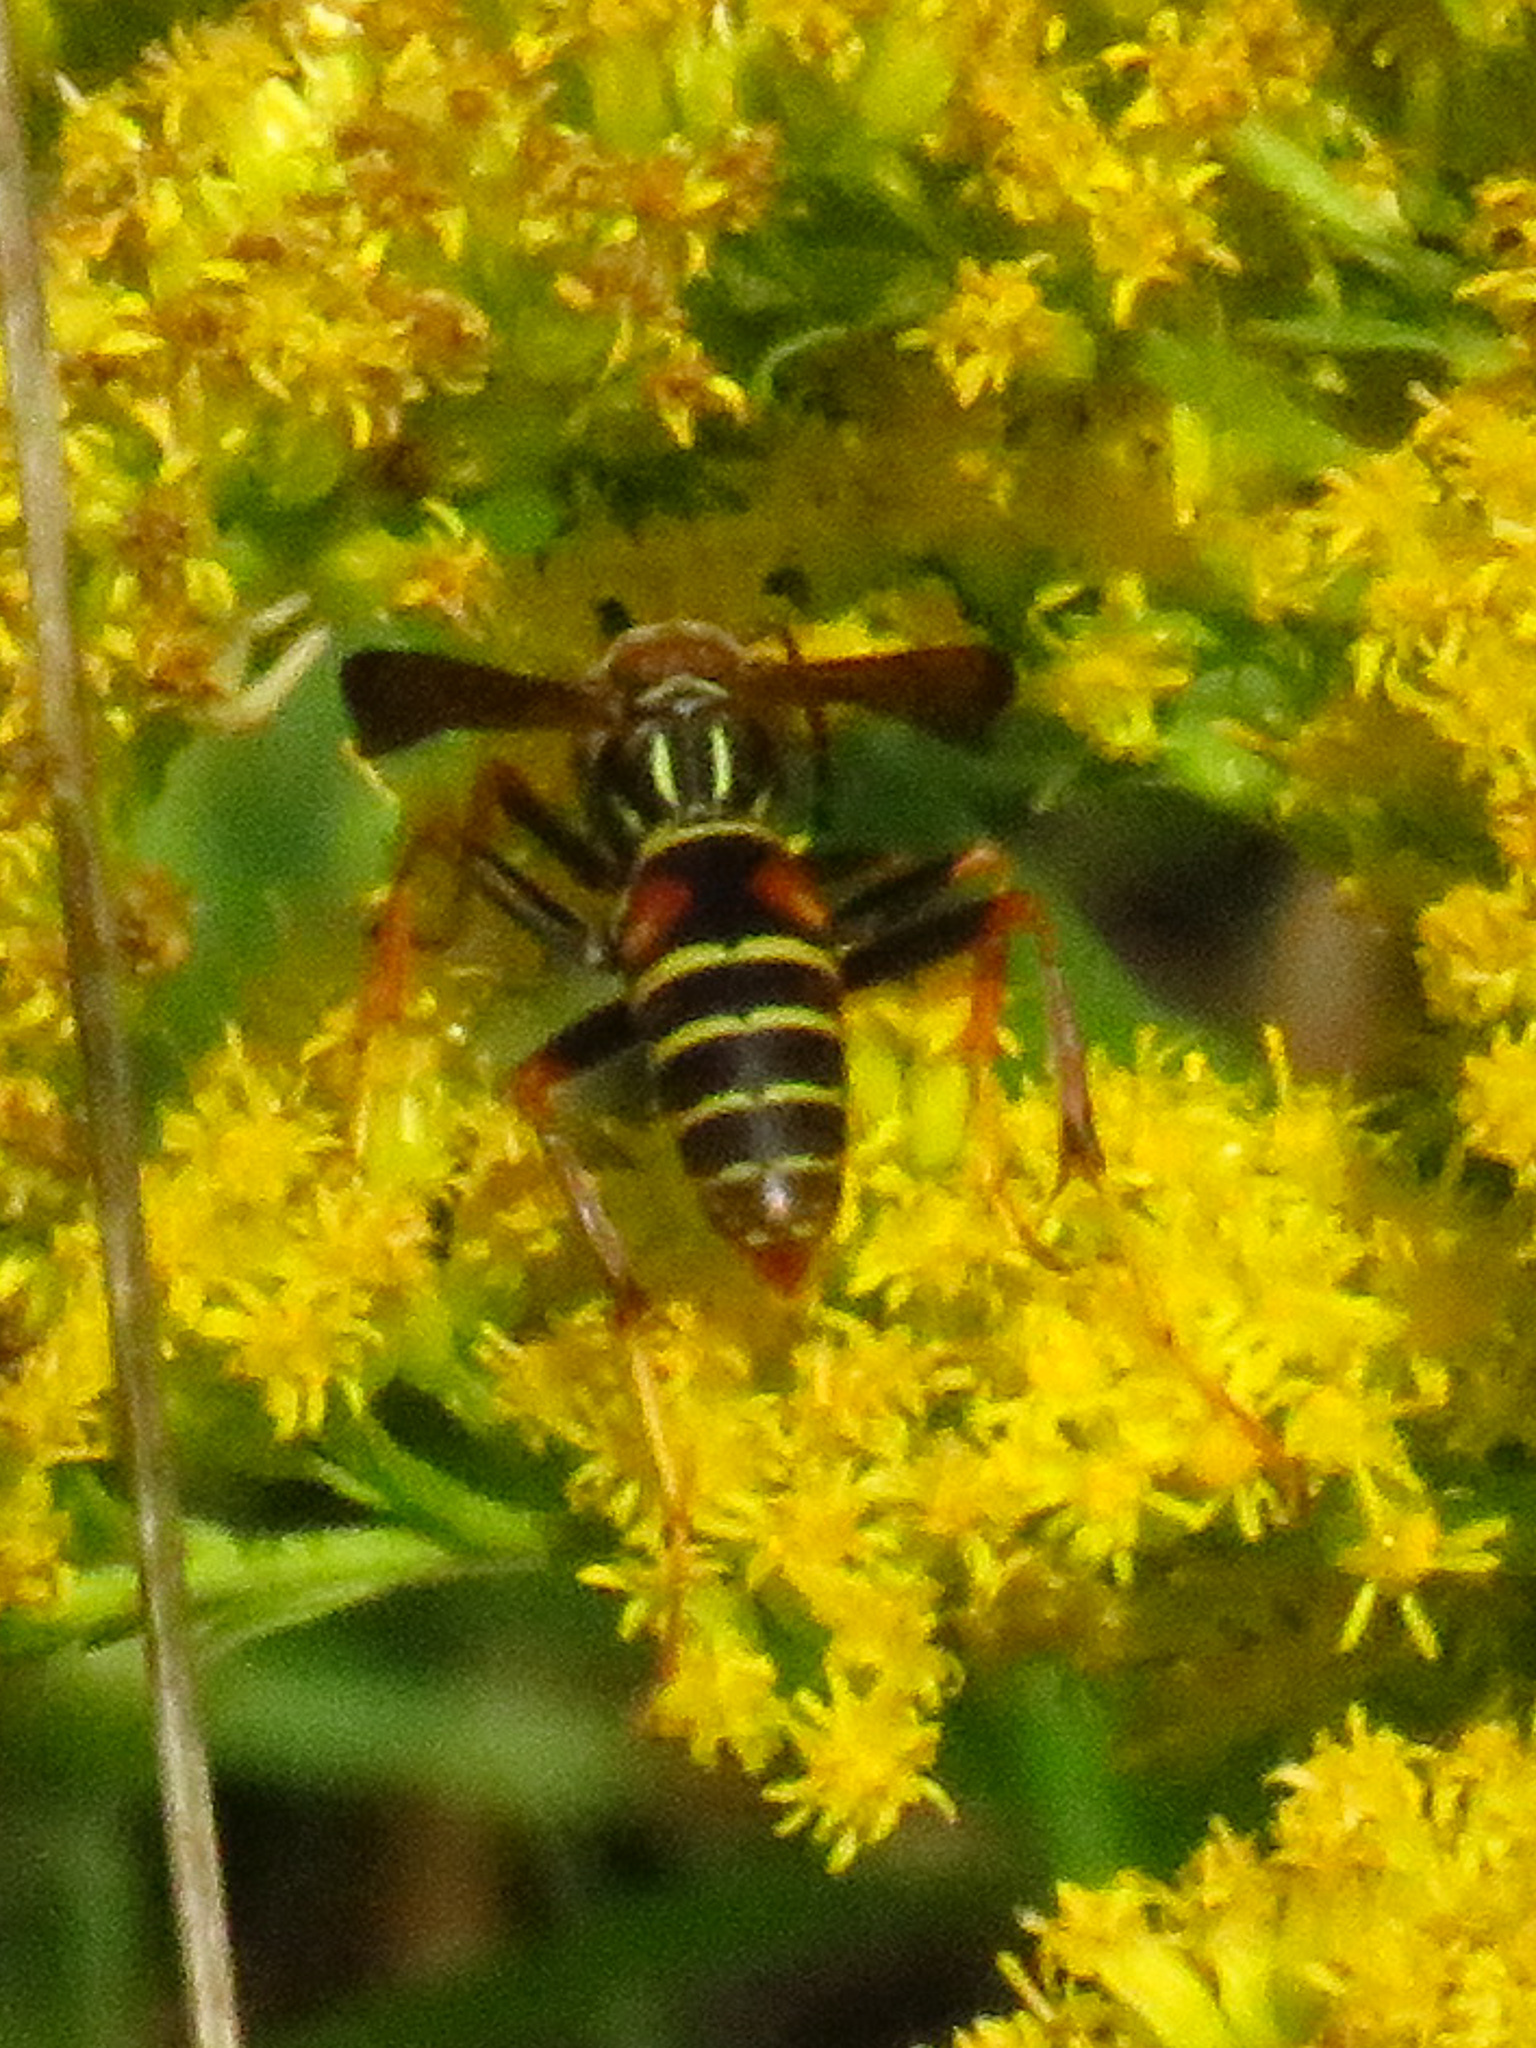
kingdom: Animalia
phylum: Arthropoda
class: Insecta
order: Hymenoptera
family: Eumenidae
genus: Polistes
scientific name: Polistes fuscatus
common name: Dark paper wasp
